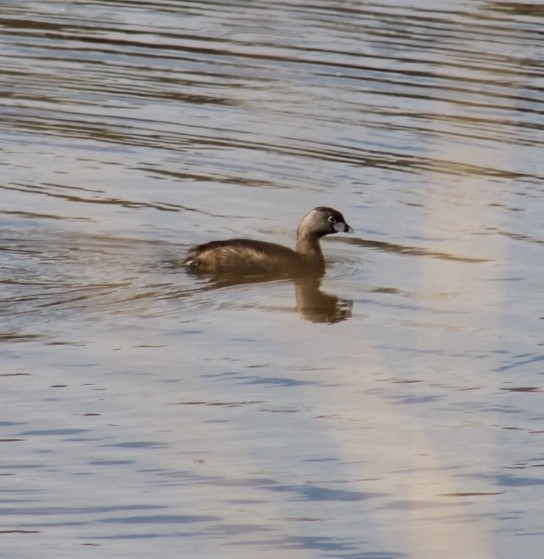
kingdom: Animalia
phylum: Chordata
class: Aves
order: Podicipediformes
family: Podicipedidae
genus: Podilymbus
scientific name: Podilymbus podiceps
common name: Pied-billed grebe
